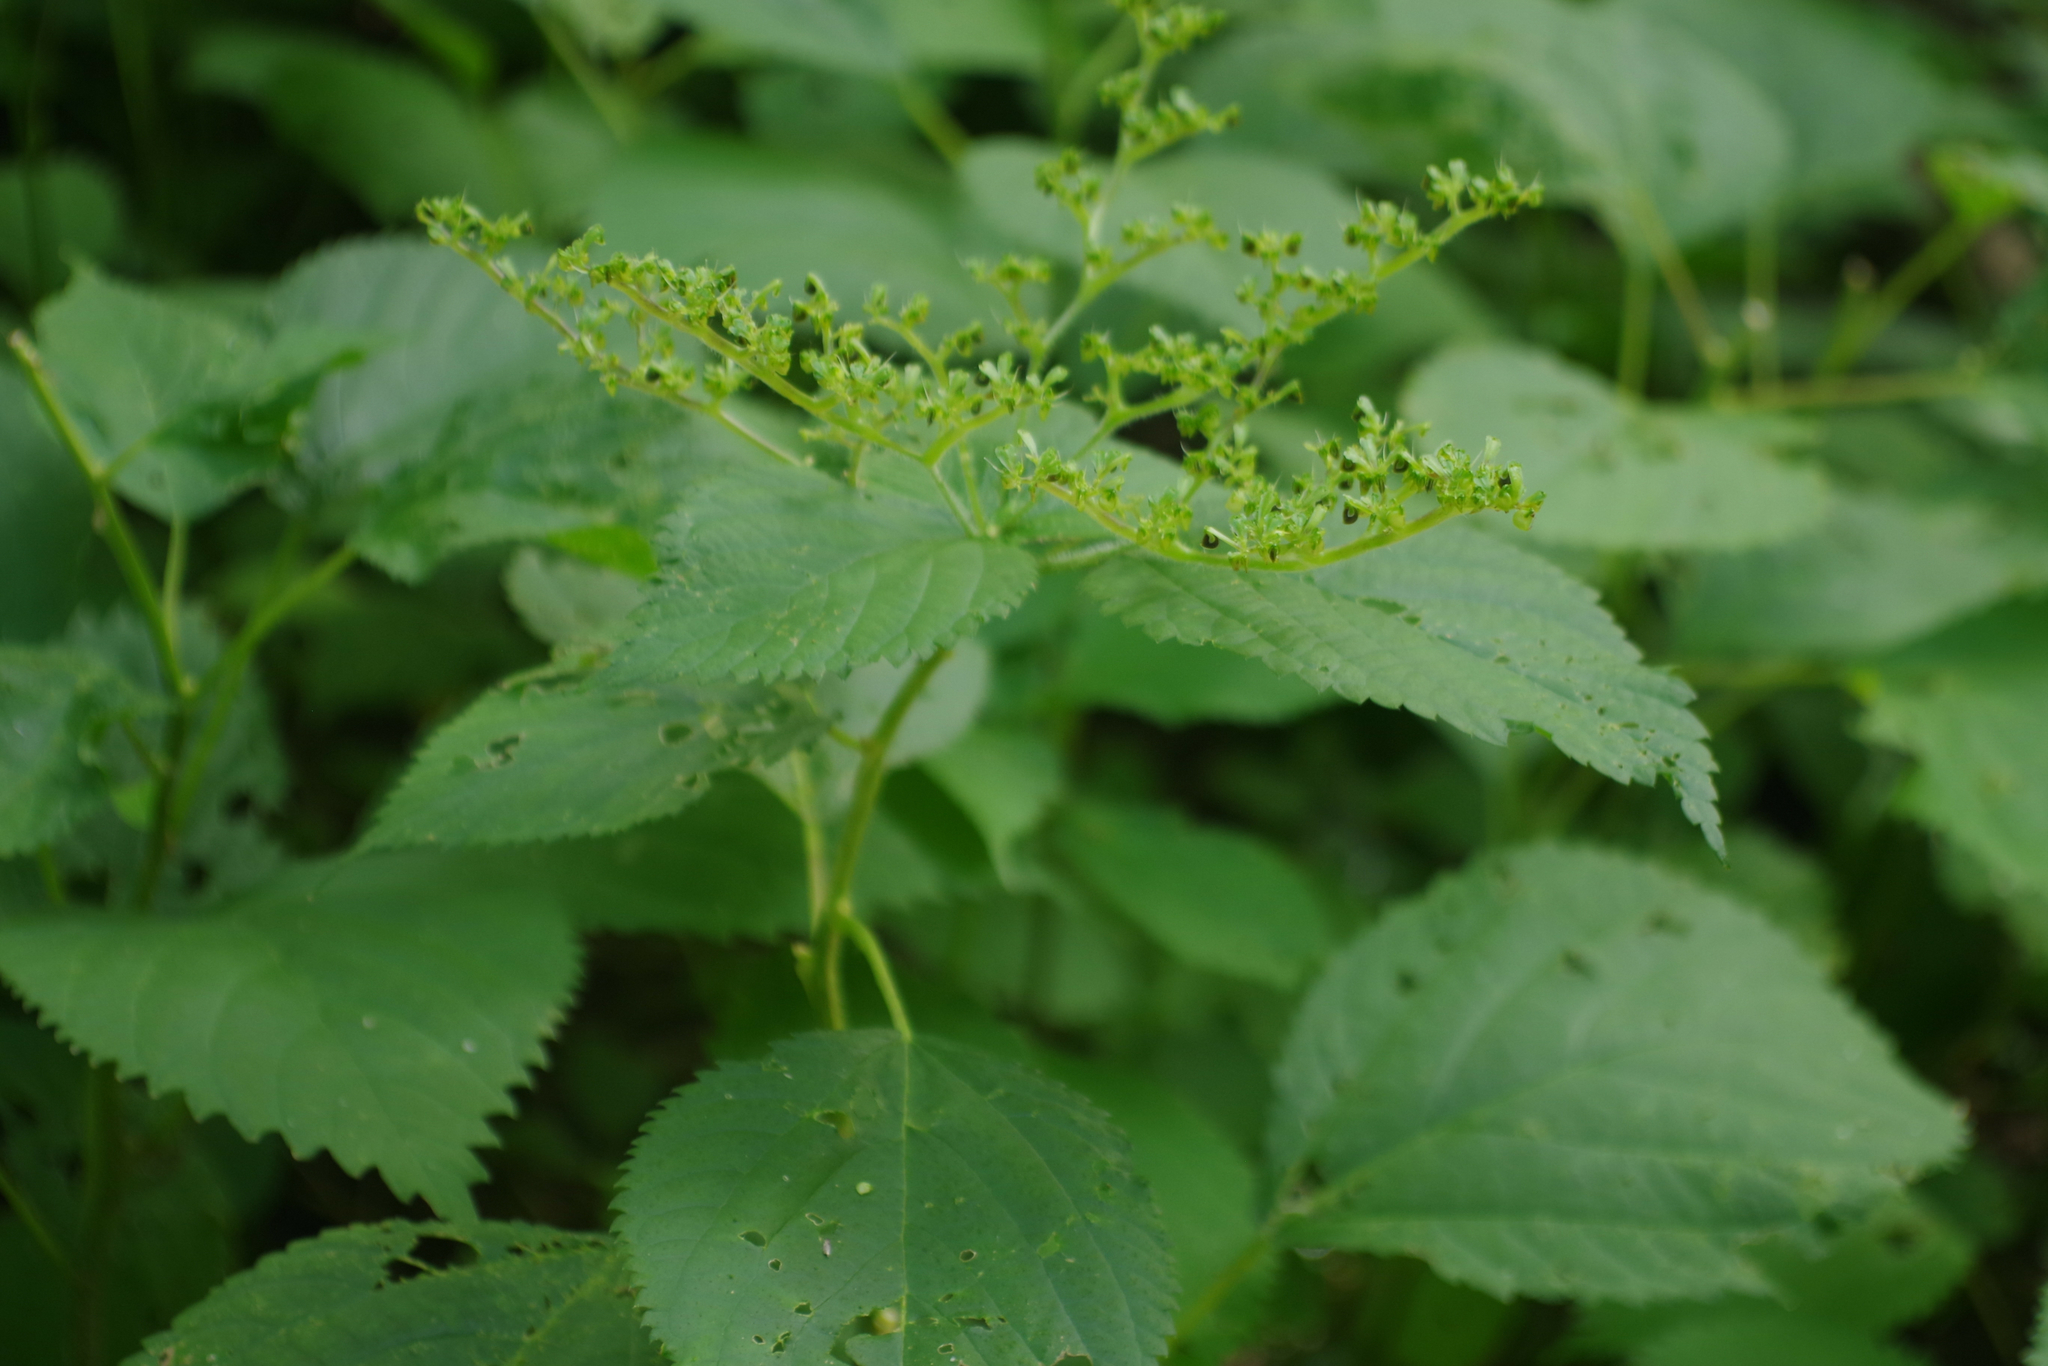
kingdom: Plantae
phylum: Tracheophyta
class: Magnoliopsida
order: Rosales
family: Urticaceae
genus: Laportea
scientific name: Laportea canadensis
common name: Canada nettle
